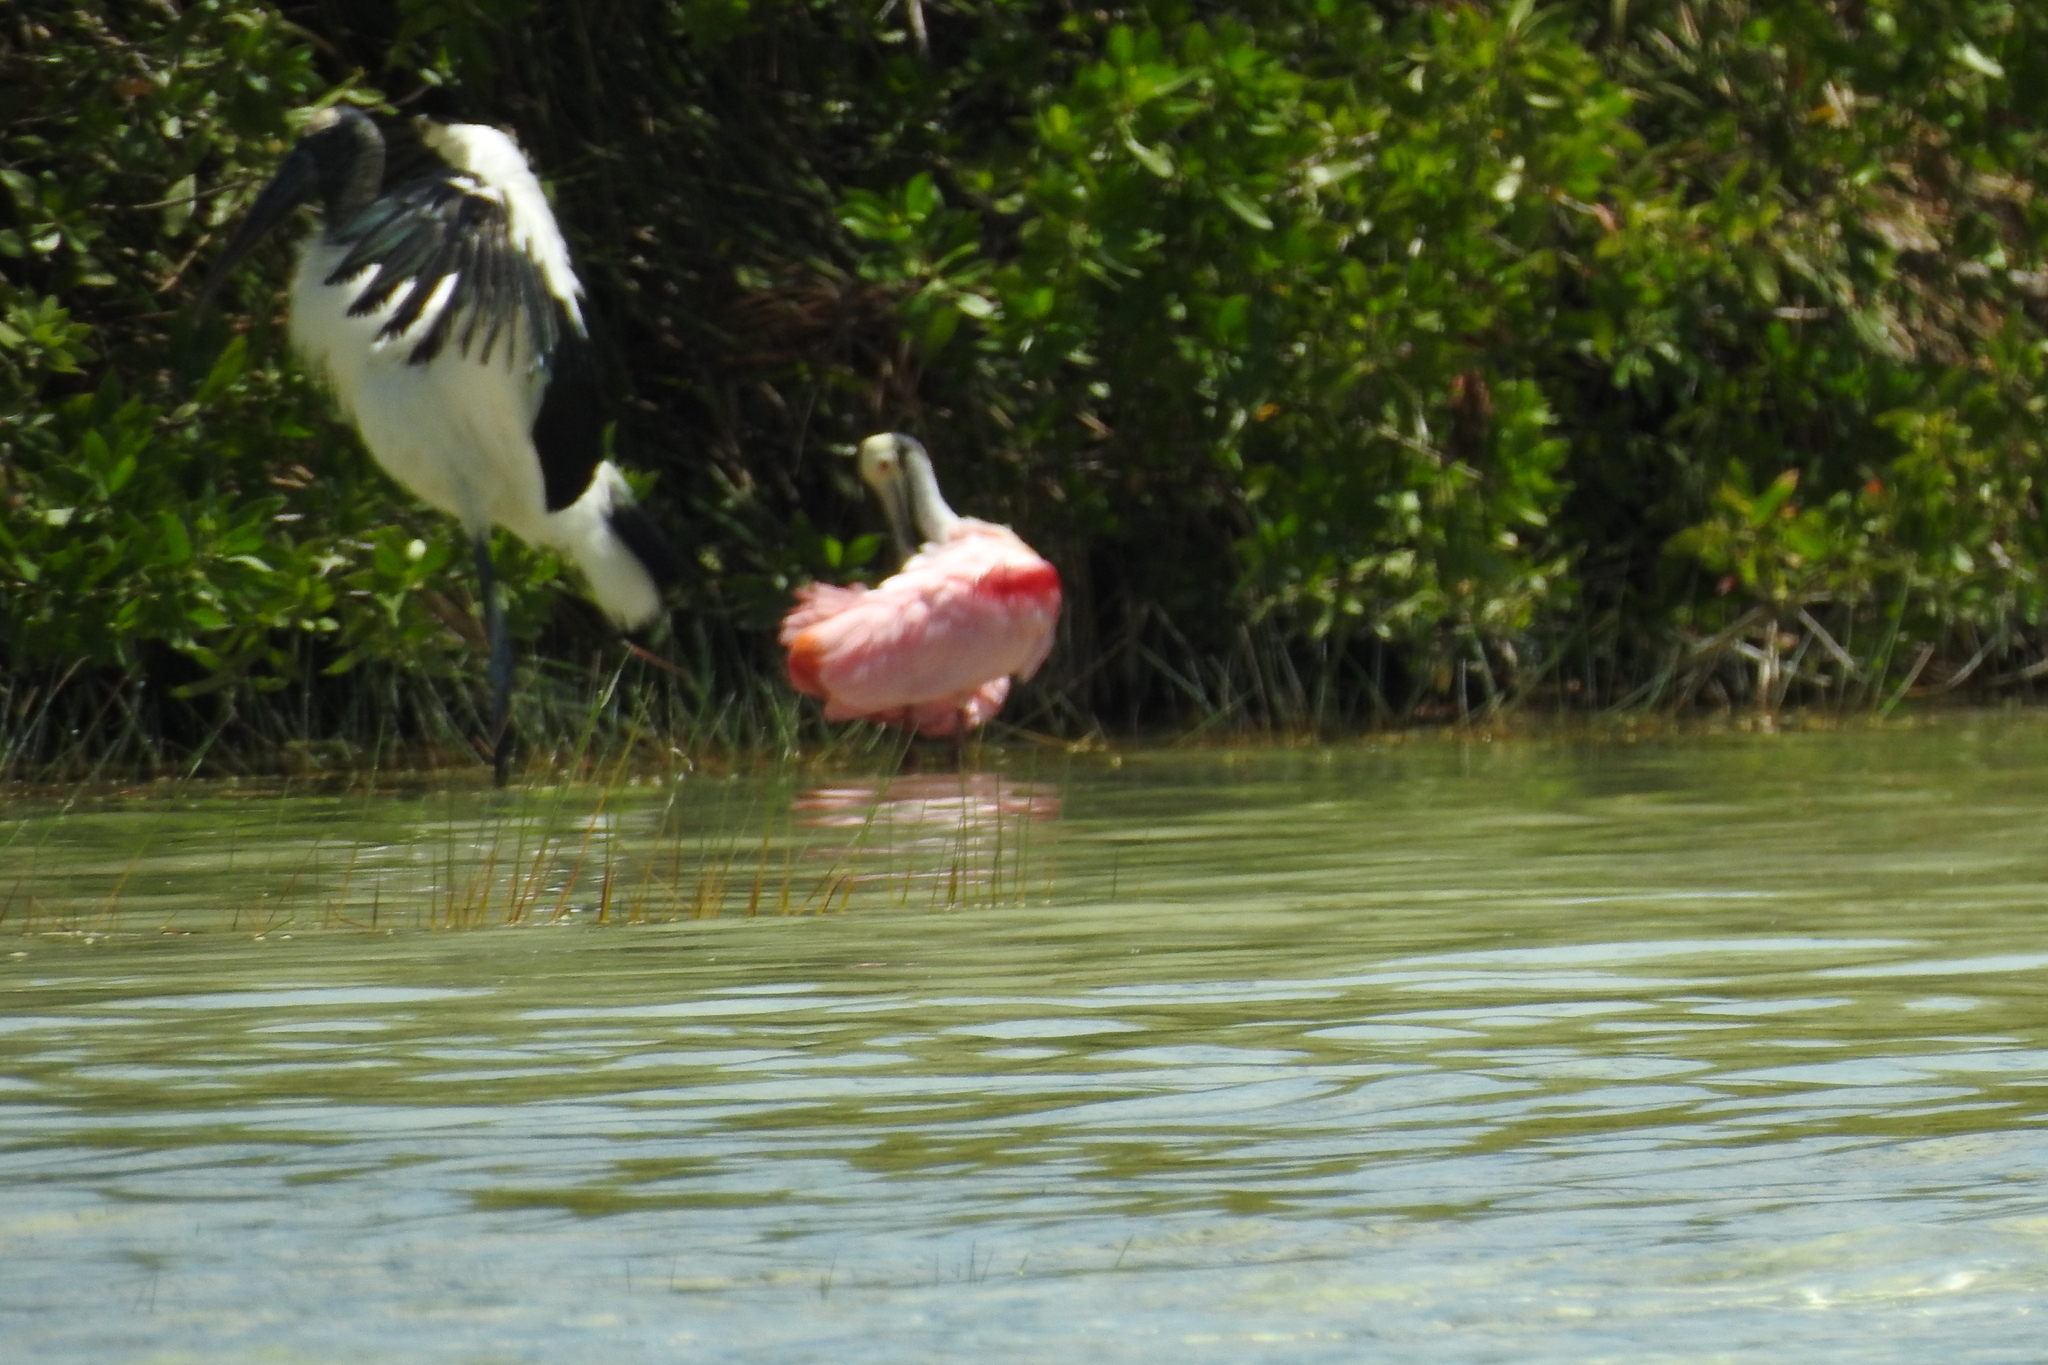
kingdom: Animalia
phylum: Chordata
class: Aves
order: Pelecaniformes
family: Threskiornithidae
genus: Platalea
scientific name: Platalea ajaja
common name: Roseate spoonbill
